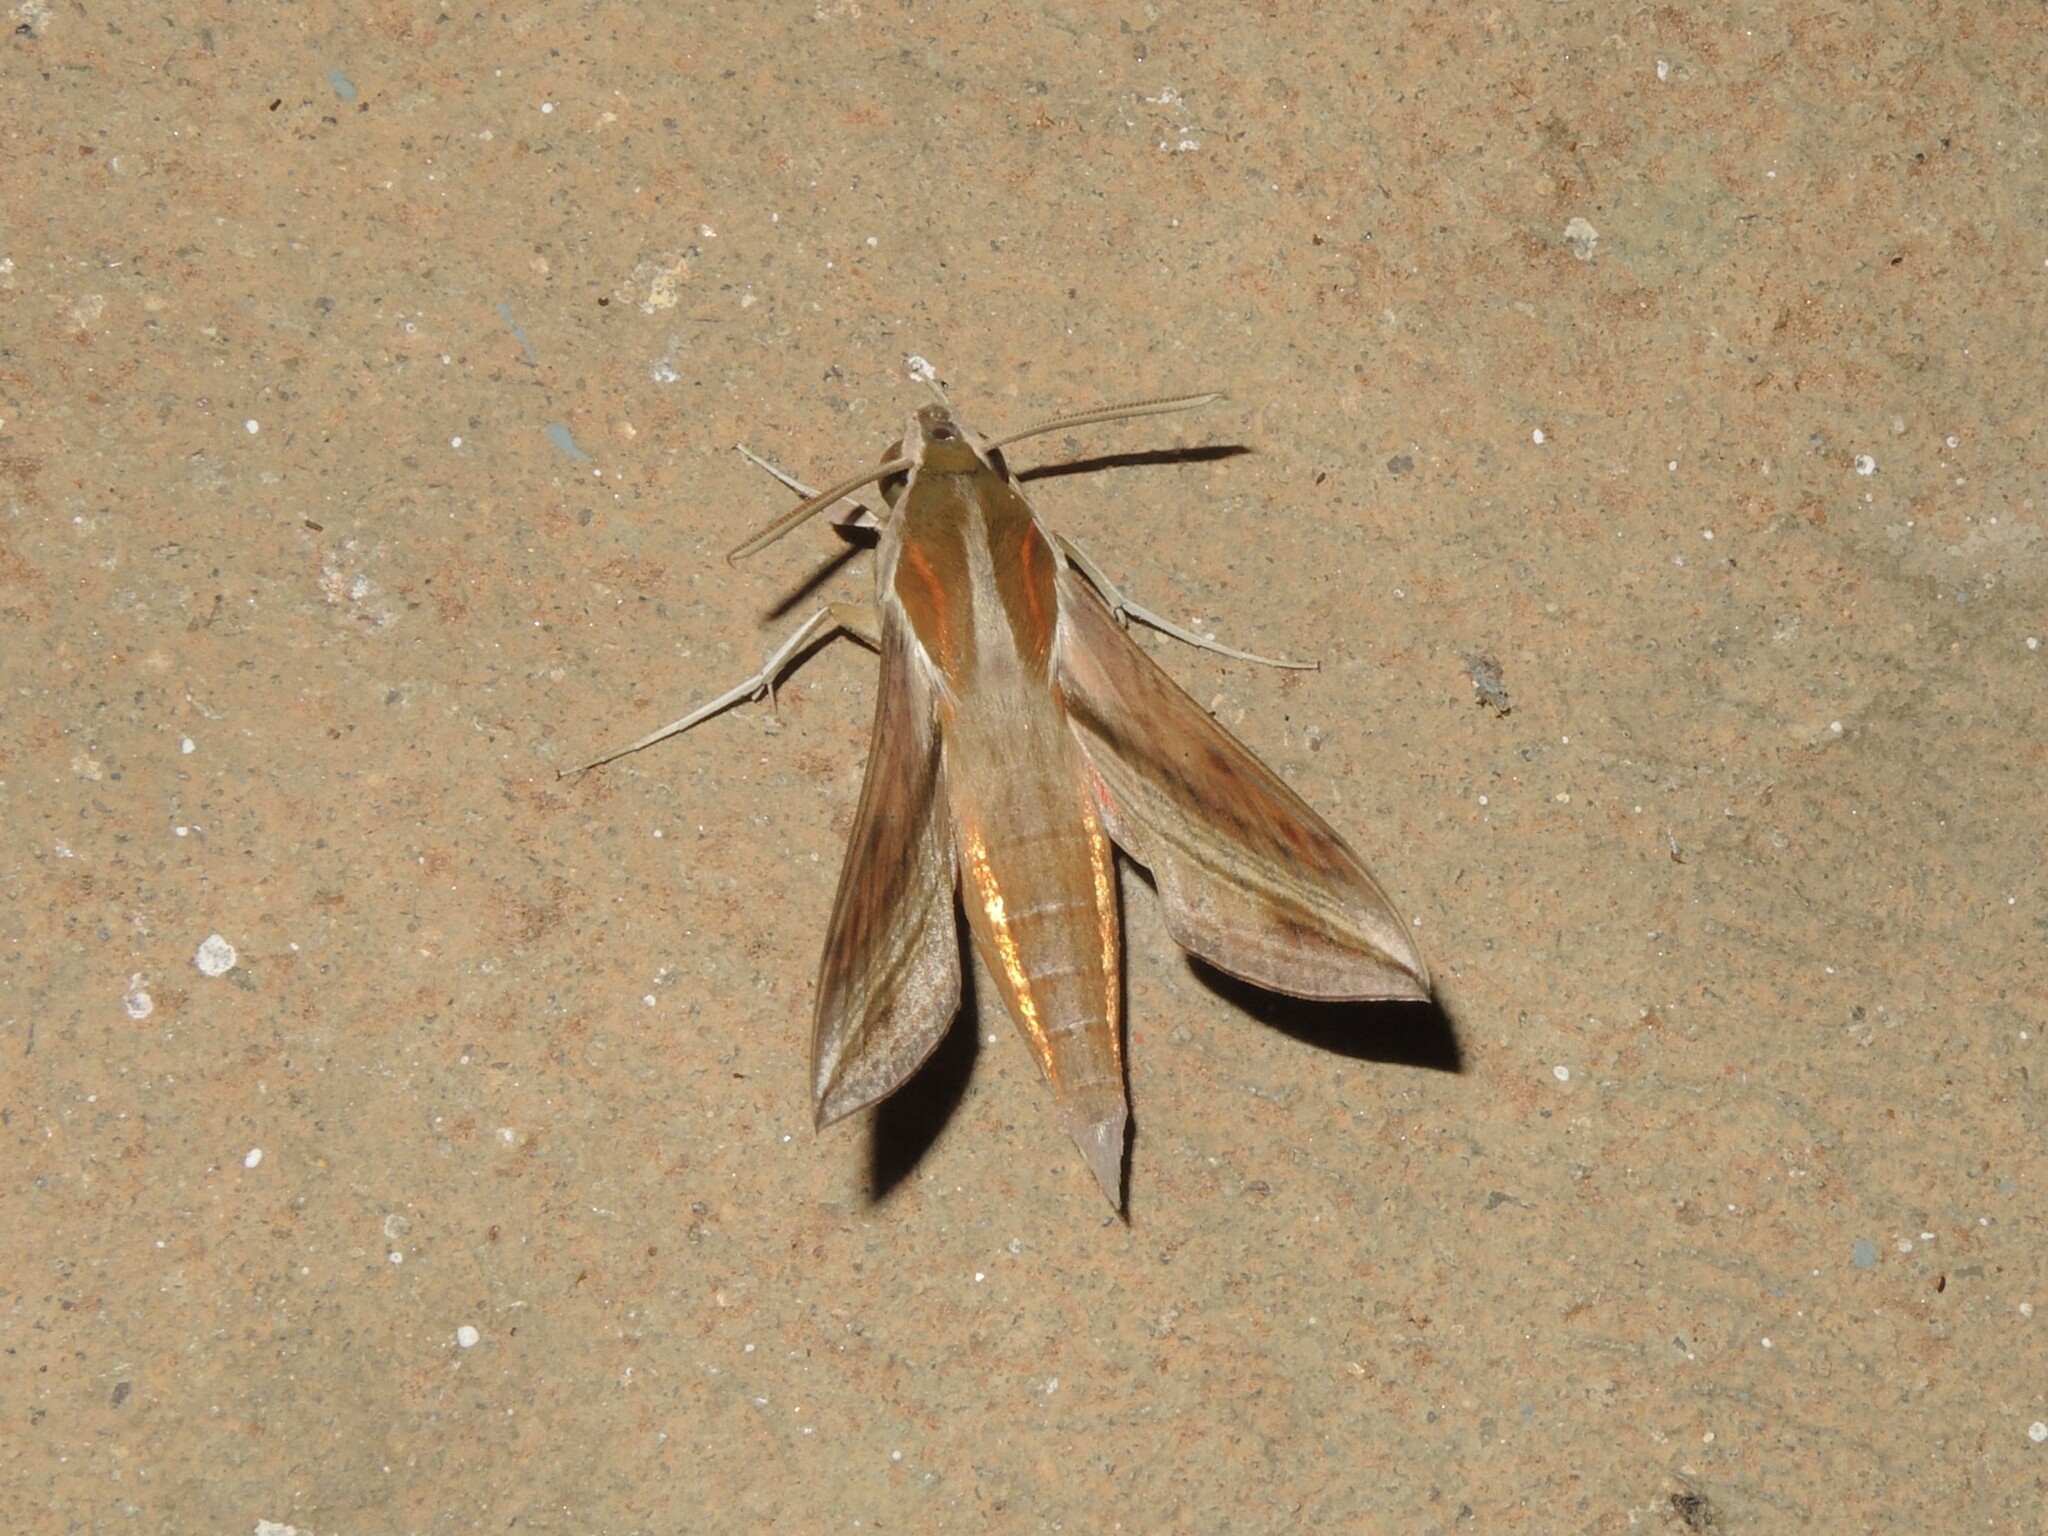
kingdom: Animalia
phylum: Arthropoda
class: Insecta
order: Lepidoptera
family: Sphingidae
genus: Hippotion
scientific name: Hippotion rosetta
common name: Vine hawk moth
